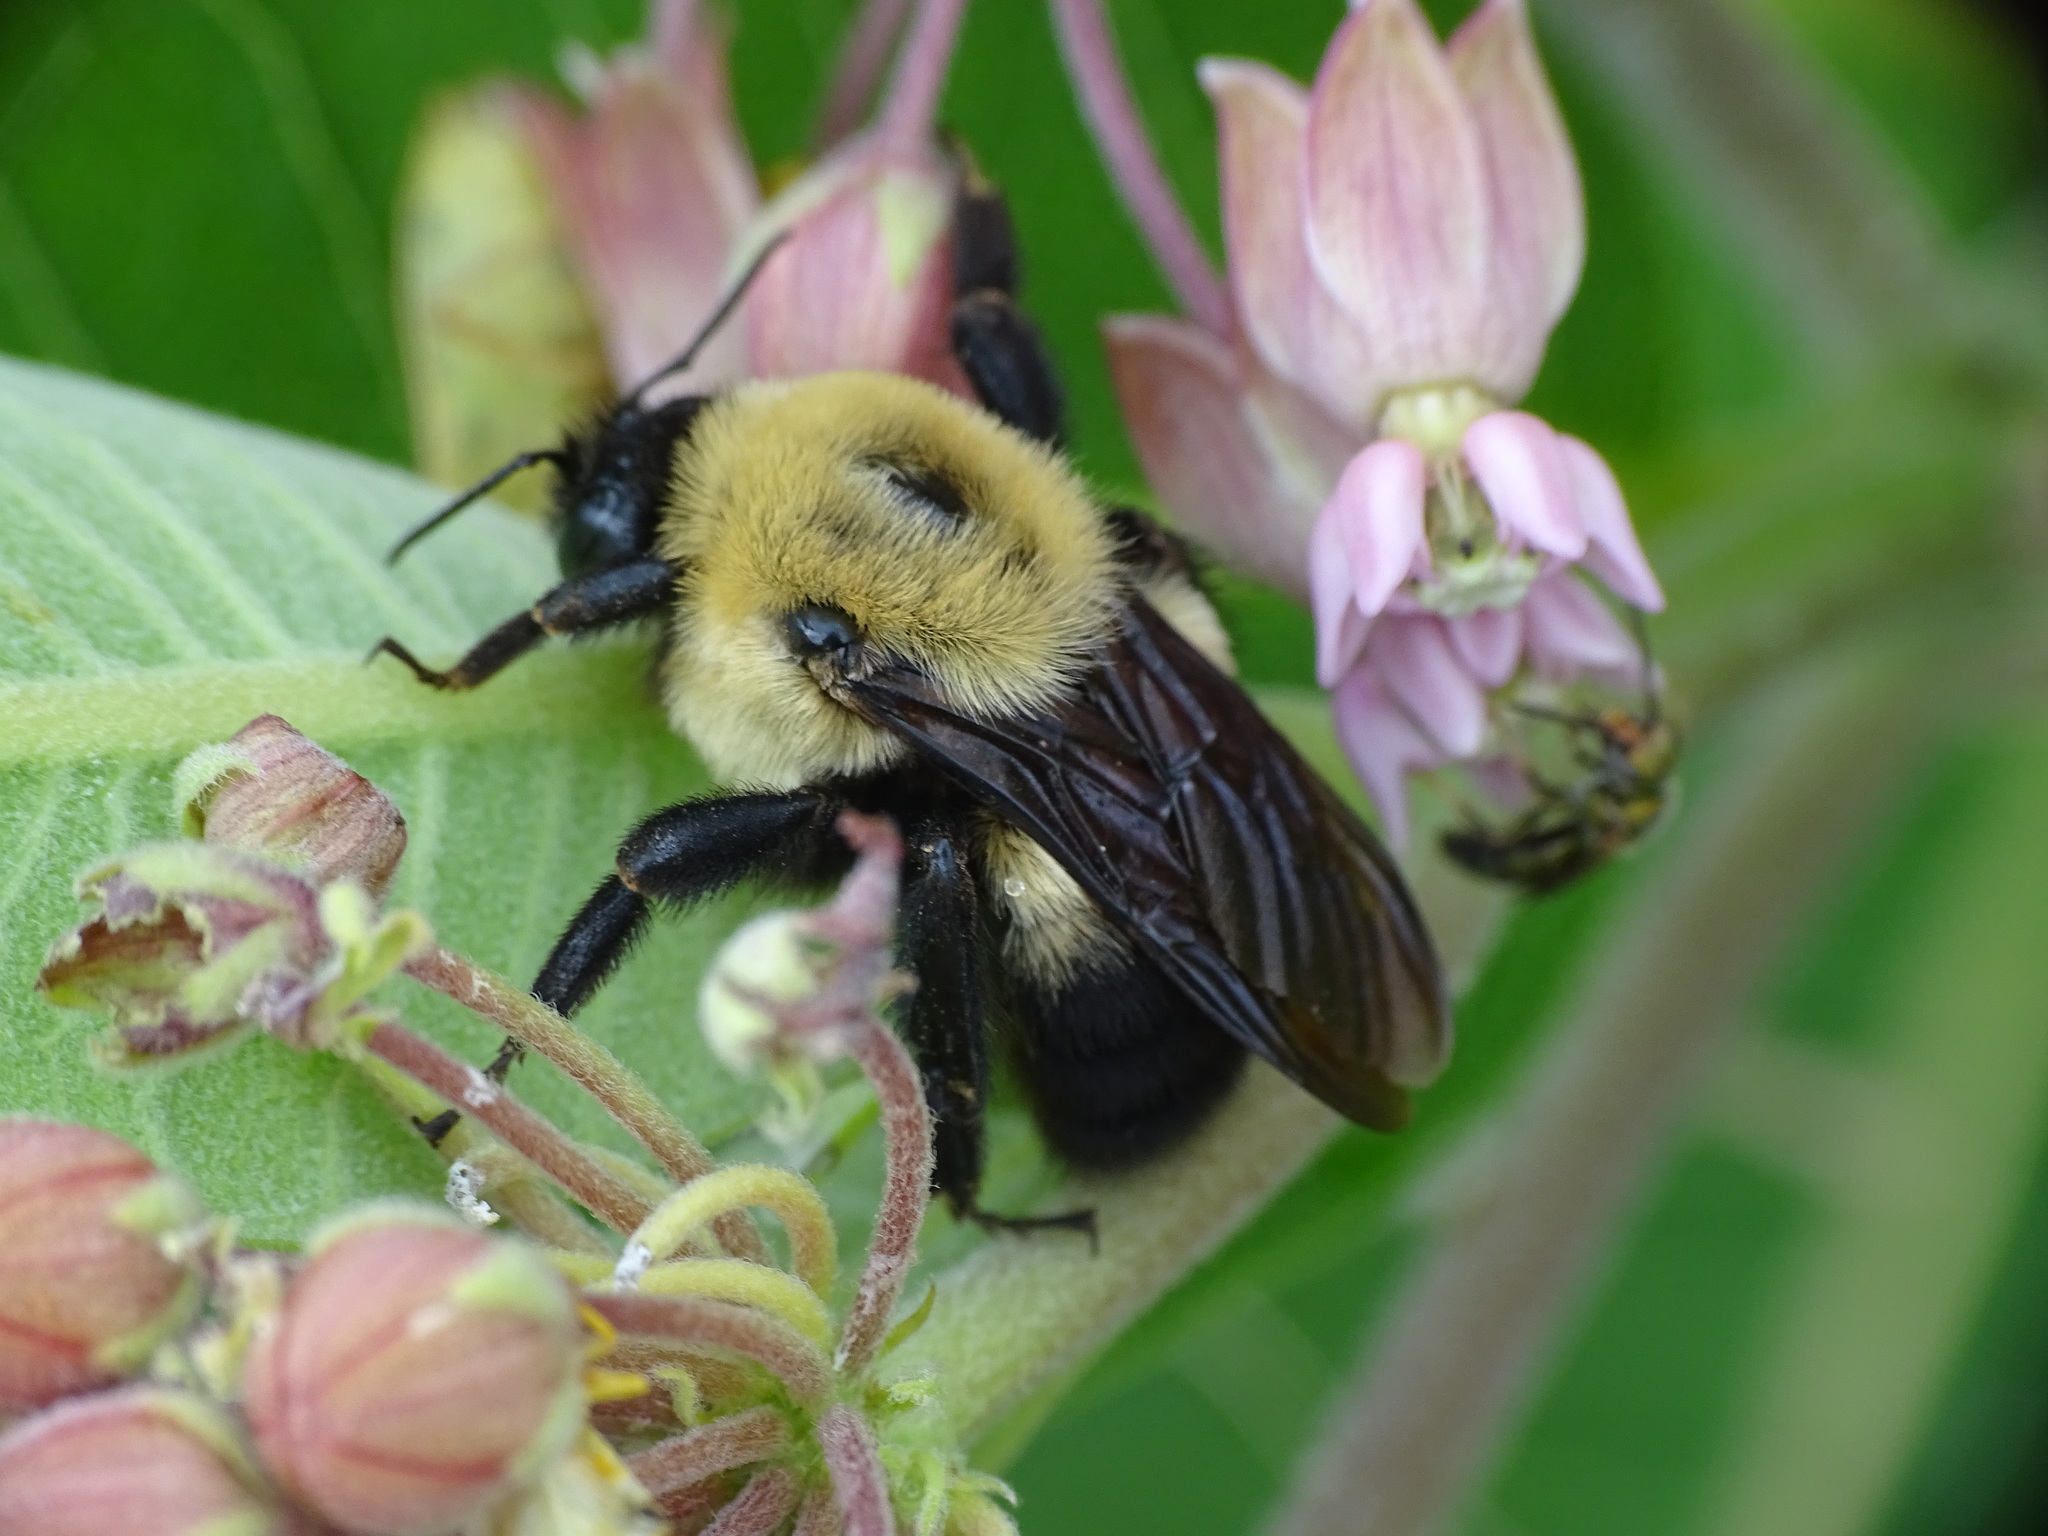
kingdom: Animalia
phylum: Arthropoda
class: Insecta
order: Hymenoptera
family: Apidae
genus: Bombus
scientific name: Bombus griseocollis
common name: Brown-belted bumble bee
